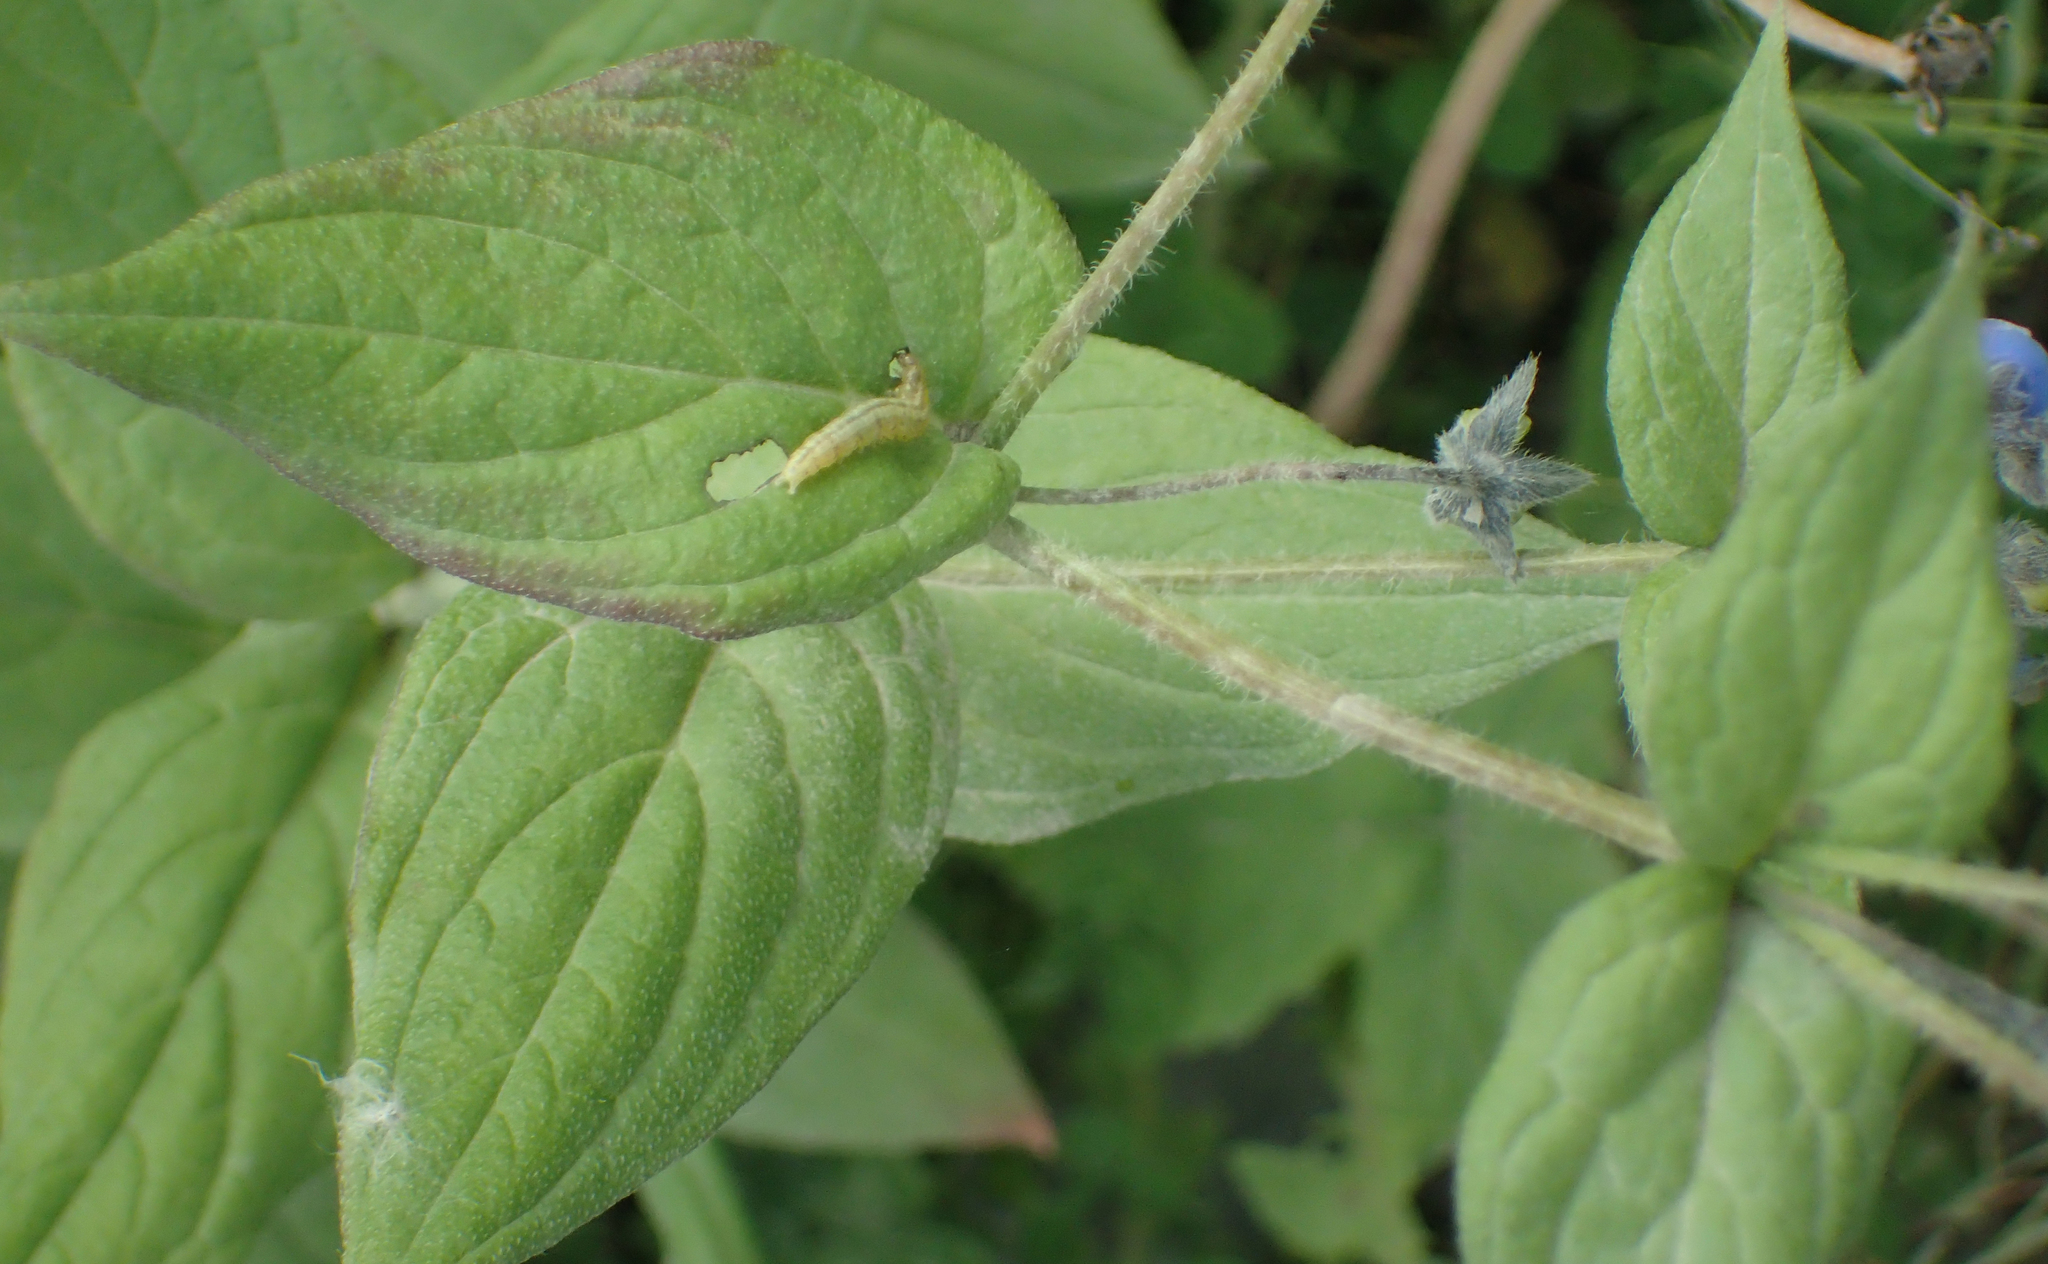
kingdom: Plantae
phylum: Tracheophyta
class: Magnoliopsida
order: Boraginales
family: Boraginaceae
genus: Mertensia
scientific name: Mertensia paniculata
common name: Panicled bluebells
